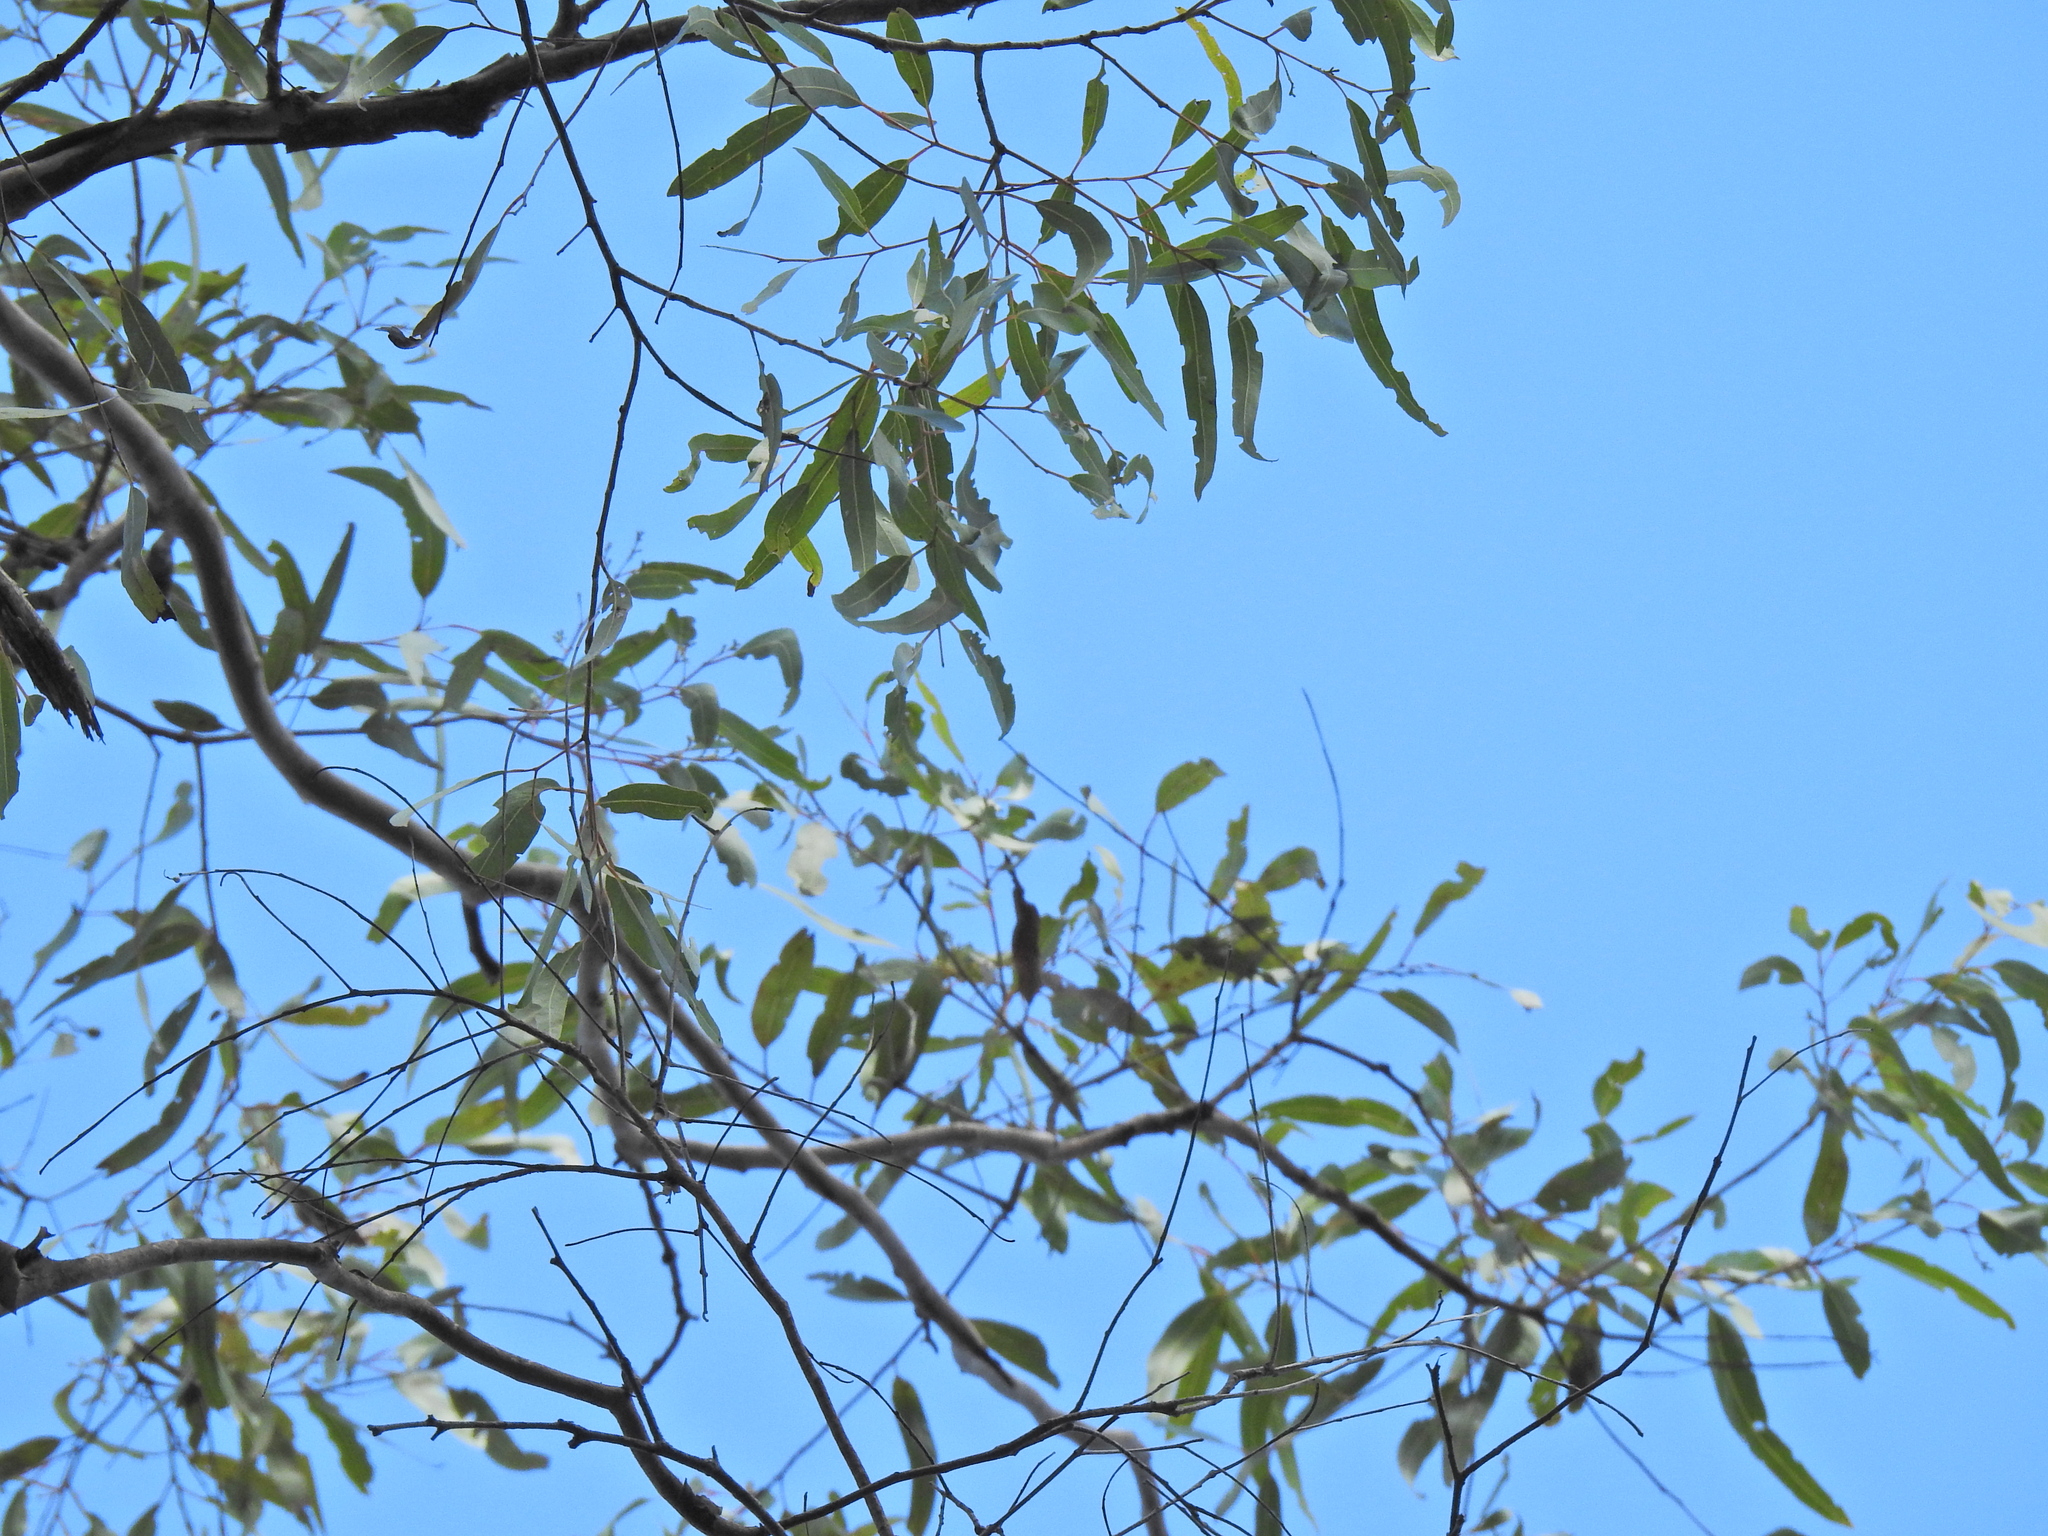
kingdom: Plantae
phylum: Tracheophyta
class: Magnoliopsida
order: Myrtales
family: Myrtaceae
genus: Corymbia
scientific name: Corymbia citriodora
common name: Lemonscented gum
